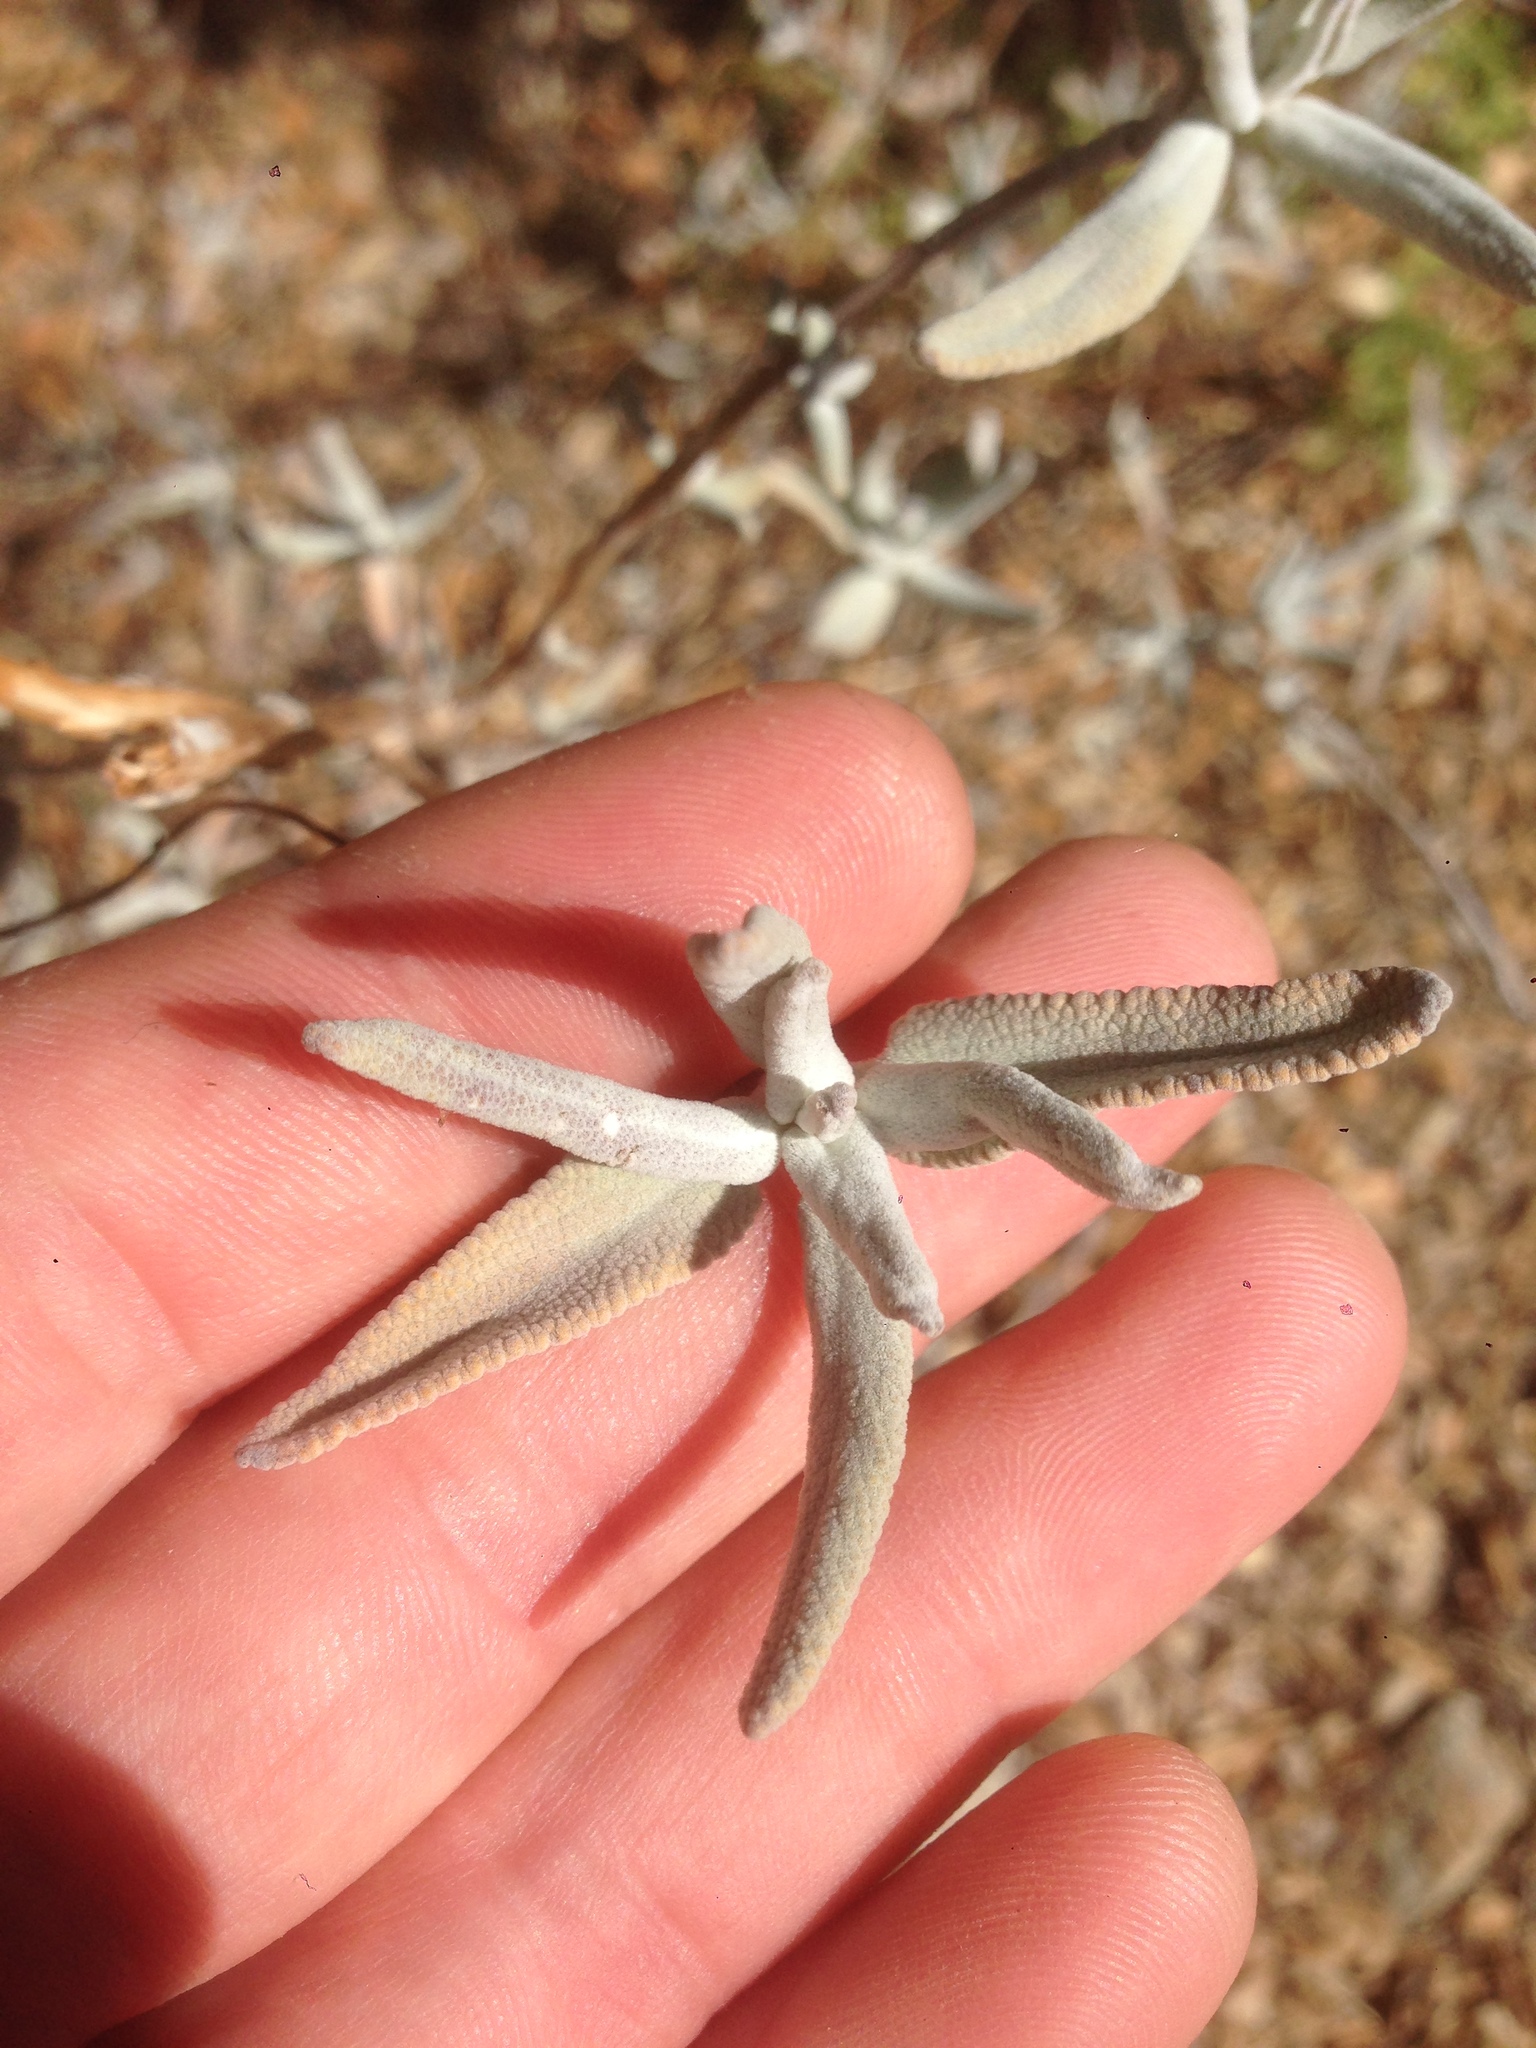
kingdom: Plantae
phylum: Tracheophyta
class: Magnoliopsida
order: Lamiales
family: Lamiaceae
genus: Salvia
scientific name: Salvia leucophylla
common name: Purple sage
